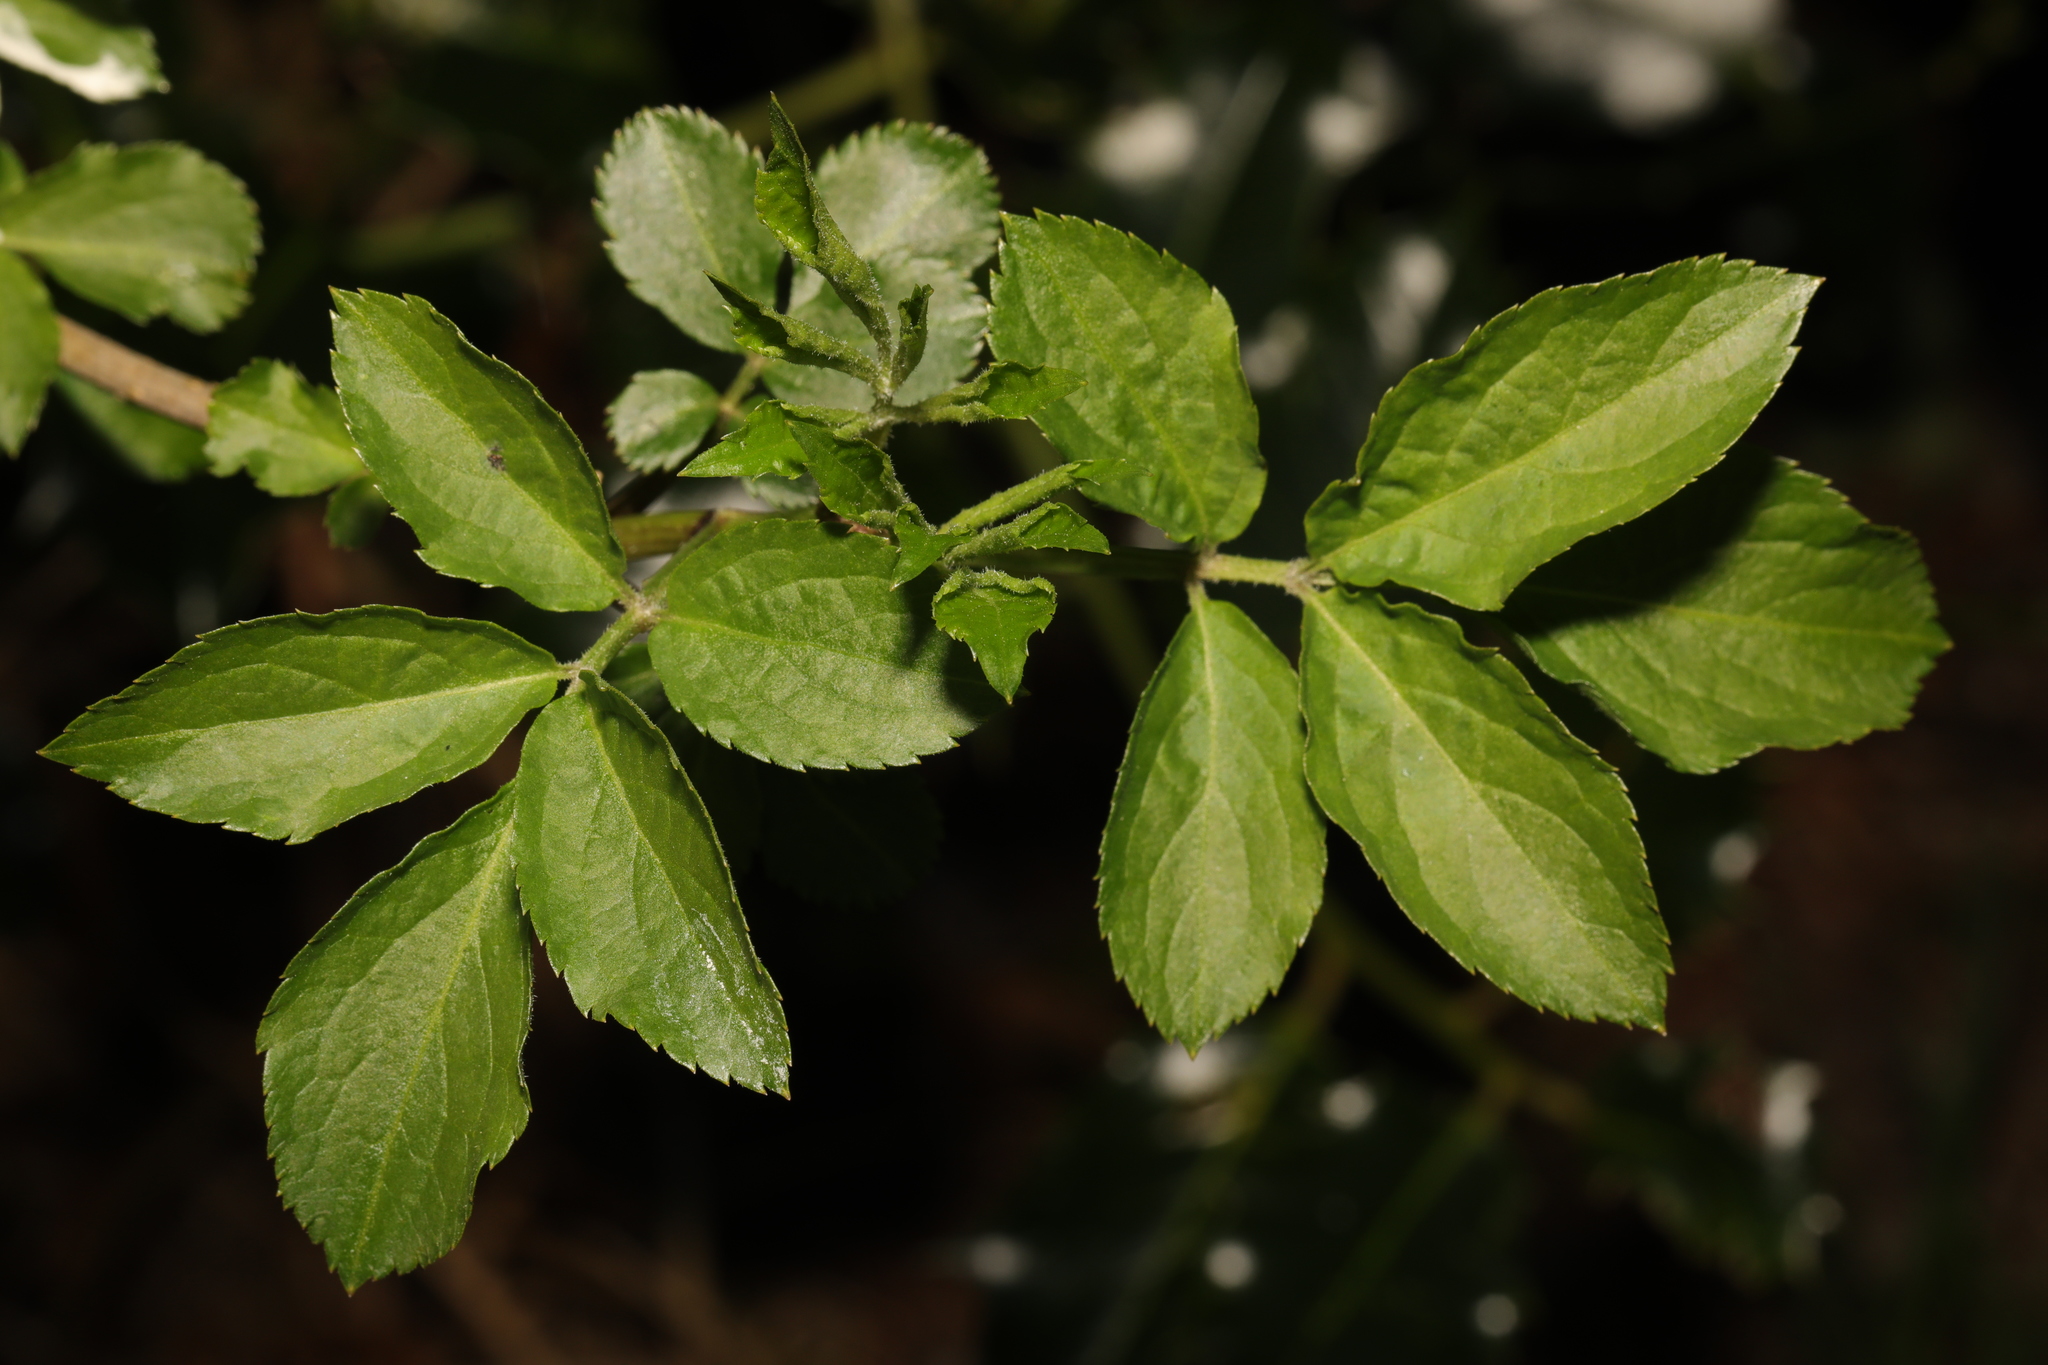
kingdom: Plantae
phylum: Tracheophyta
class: Magnoliopsida
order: Dipsacales
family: Viburnaceae
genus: Sambucus
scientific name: Sambucus nigra
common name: Elder
